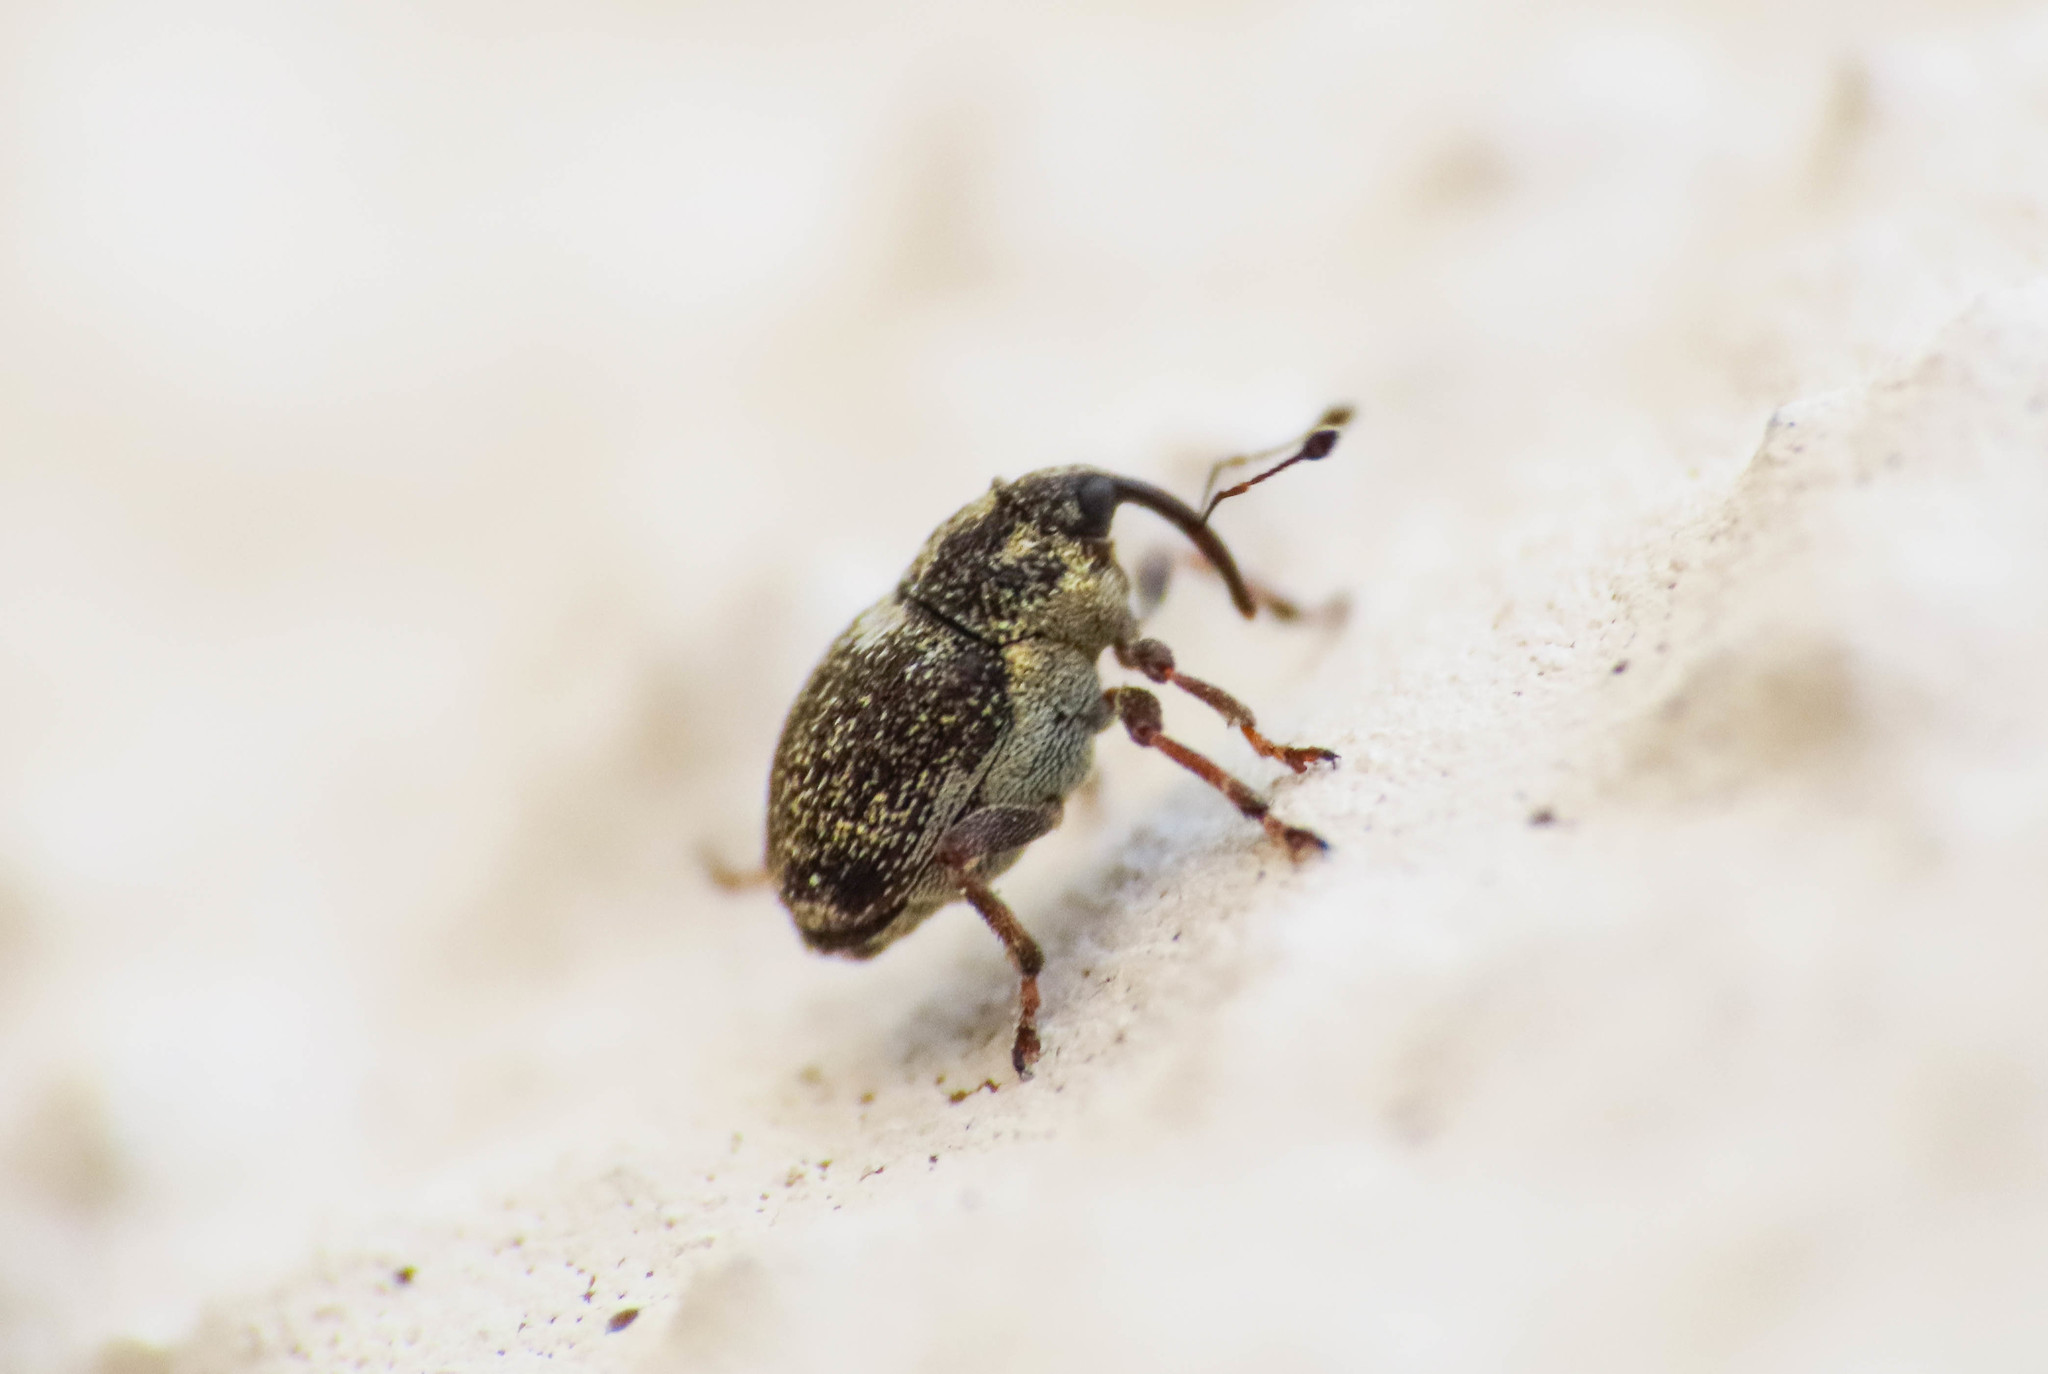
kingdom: Animalia
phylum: Arthropoda
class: Insecta
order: Coleoptera
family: Curculionidae
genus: Oprohinus
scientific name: Oprohinus consputus
